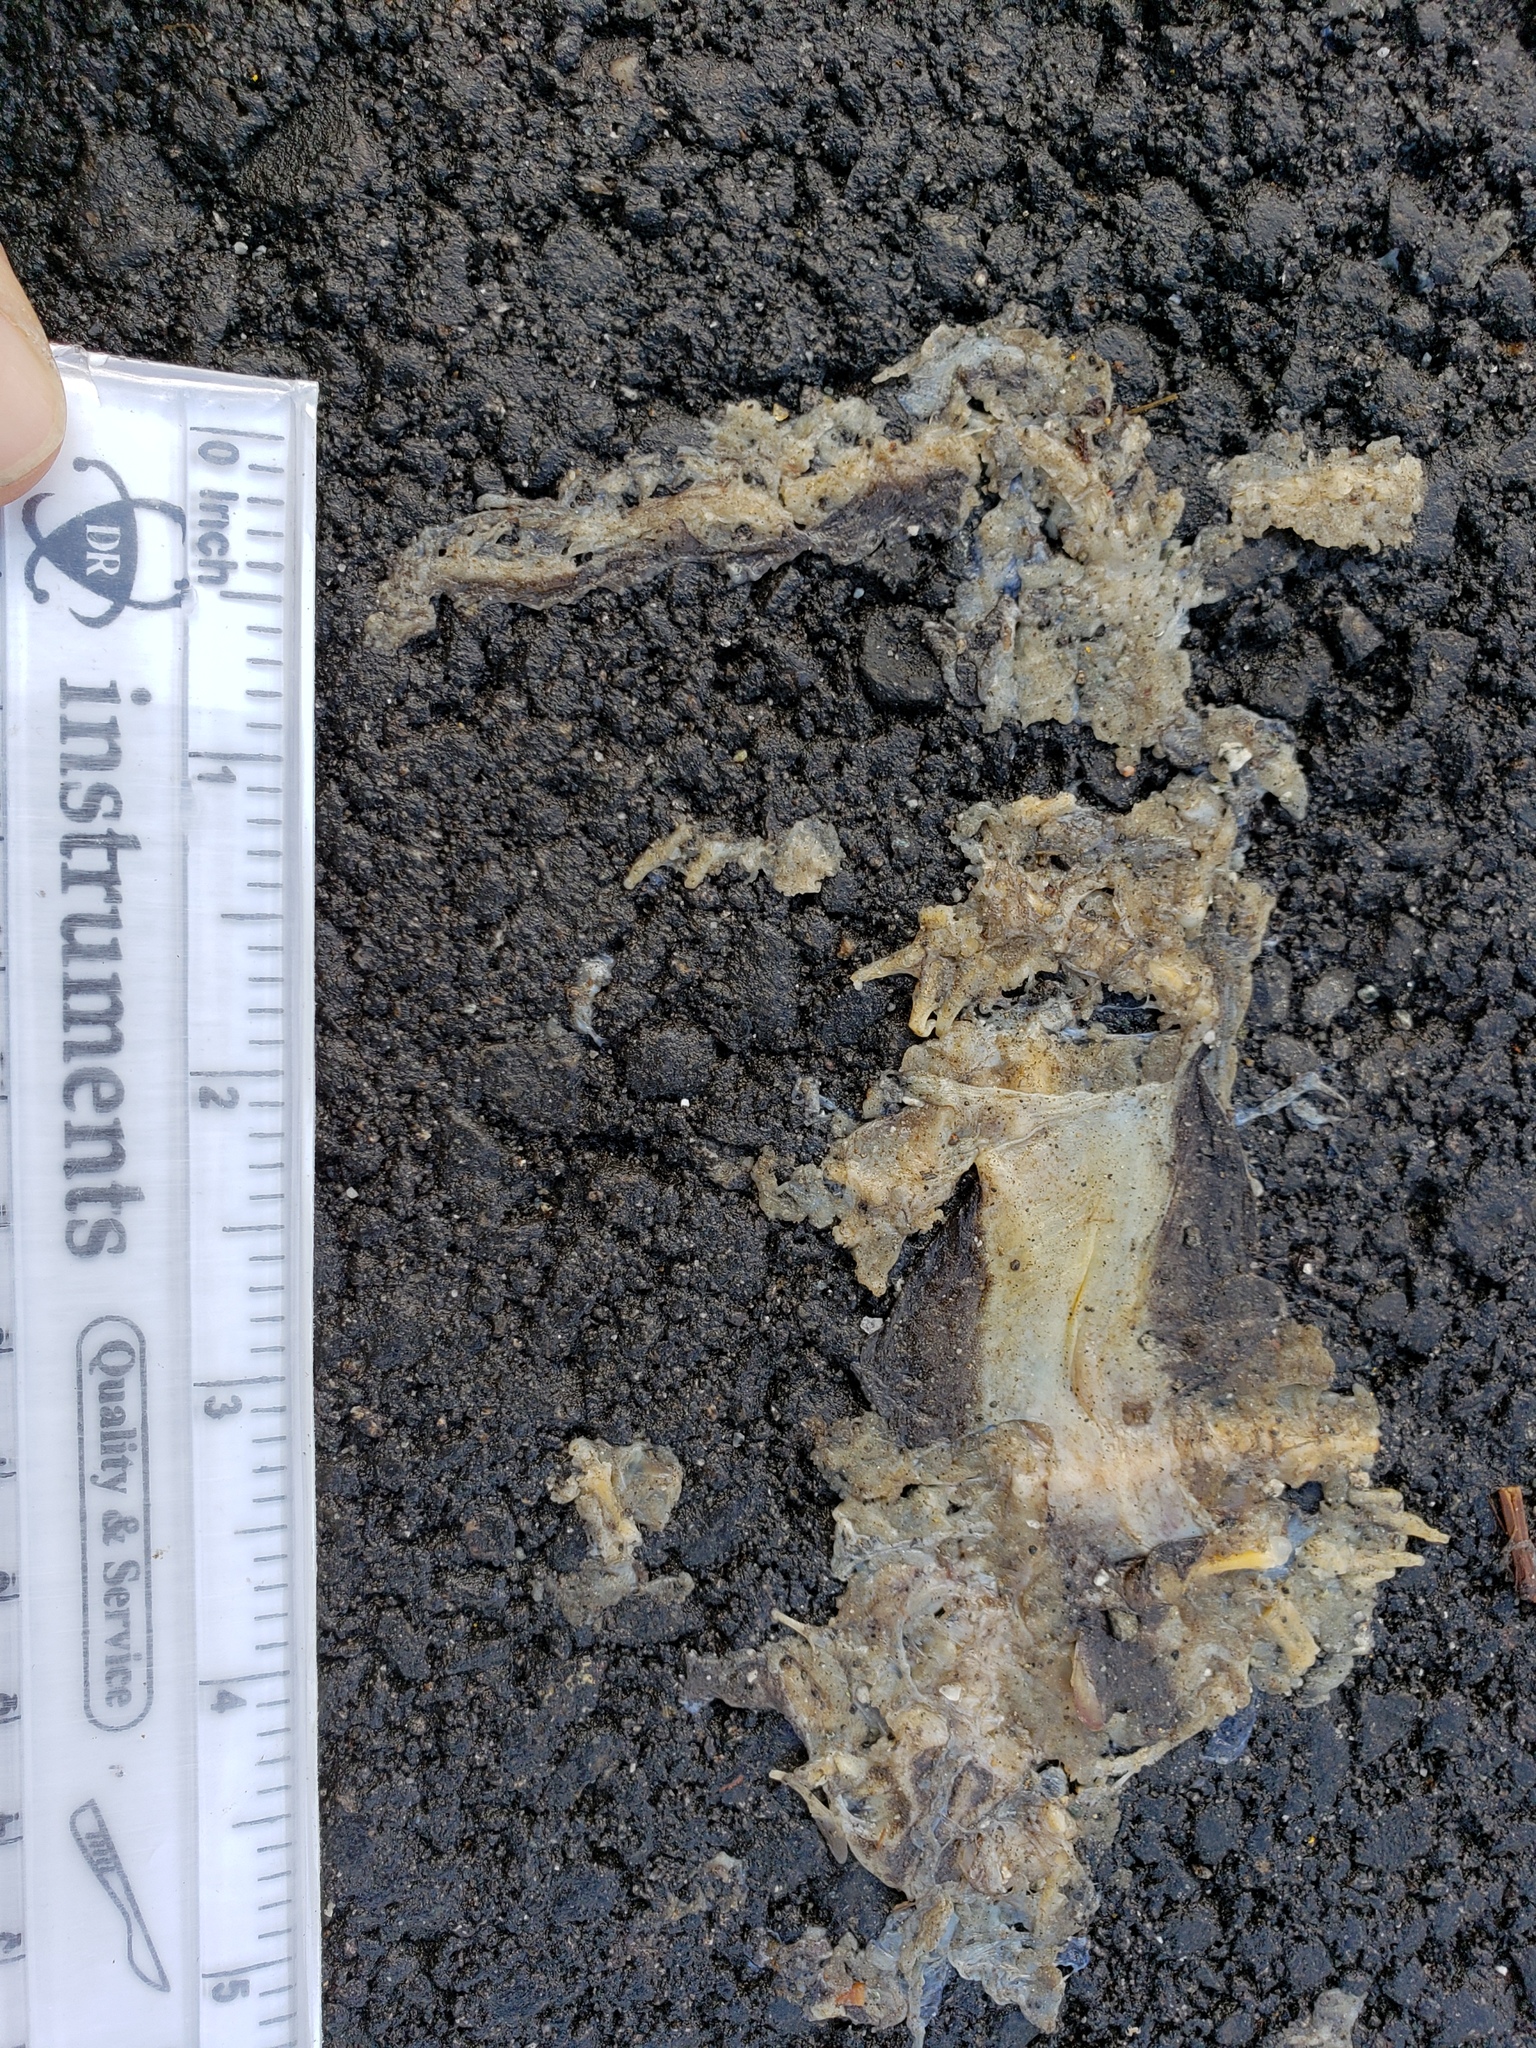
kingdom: Animalia
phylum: Chordata
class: Amphibia
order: Caudata
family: Salamandridae
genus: Taricha
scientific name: Taricha
